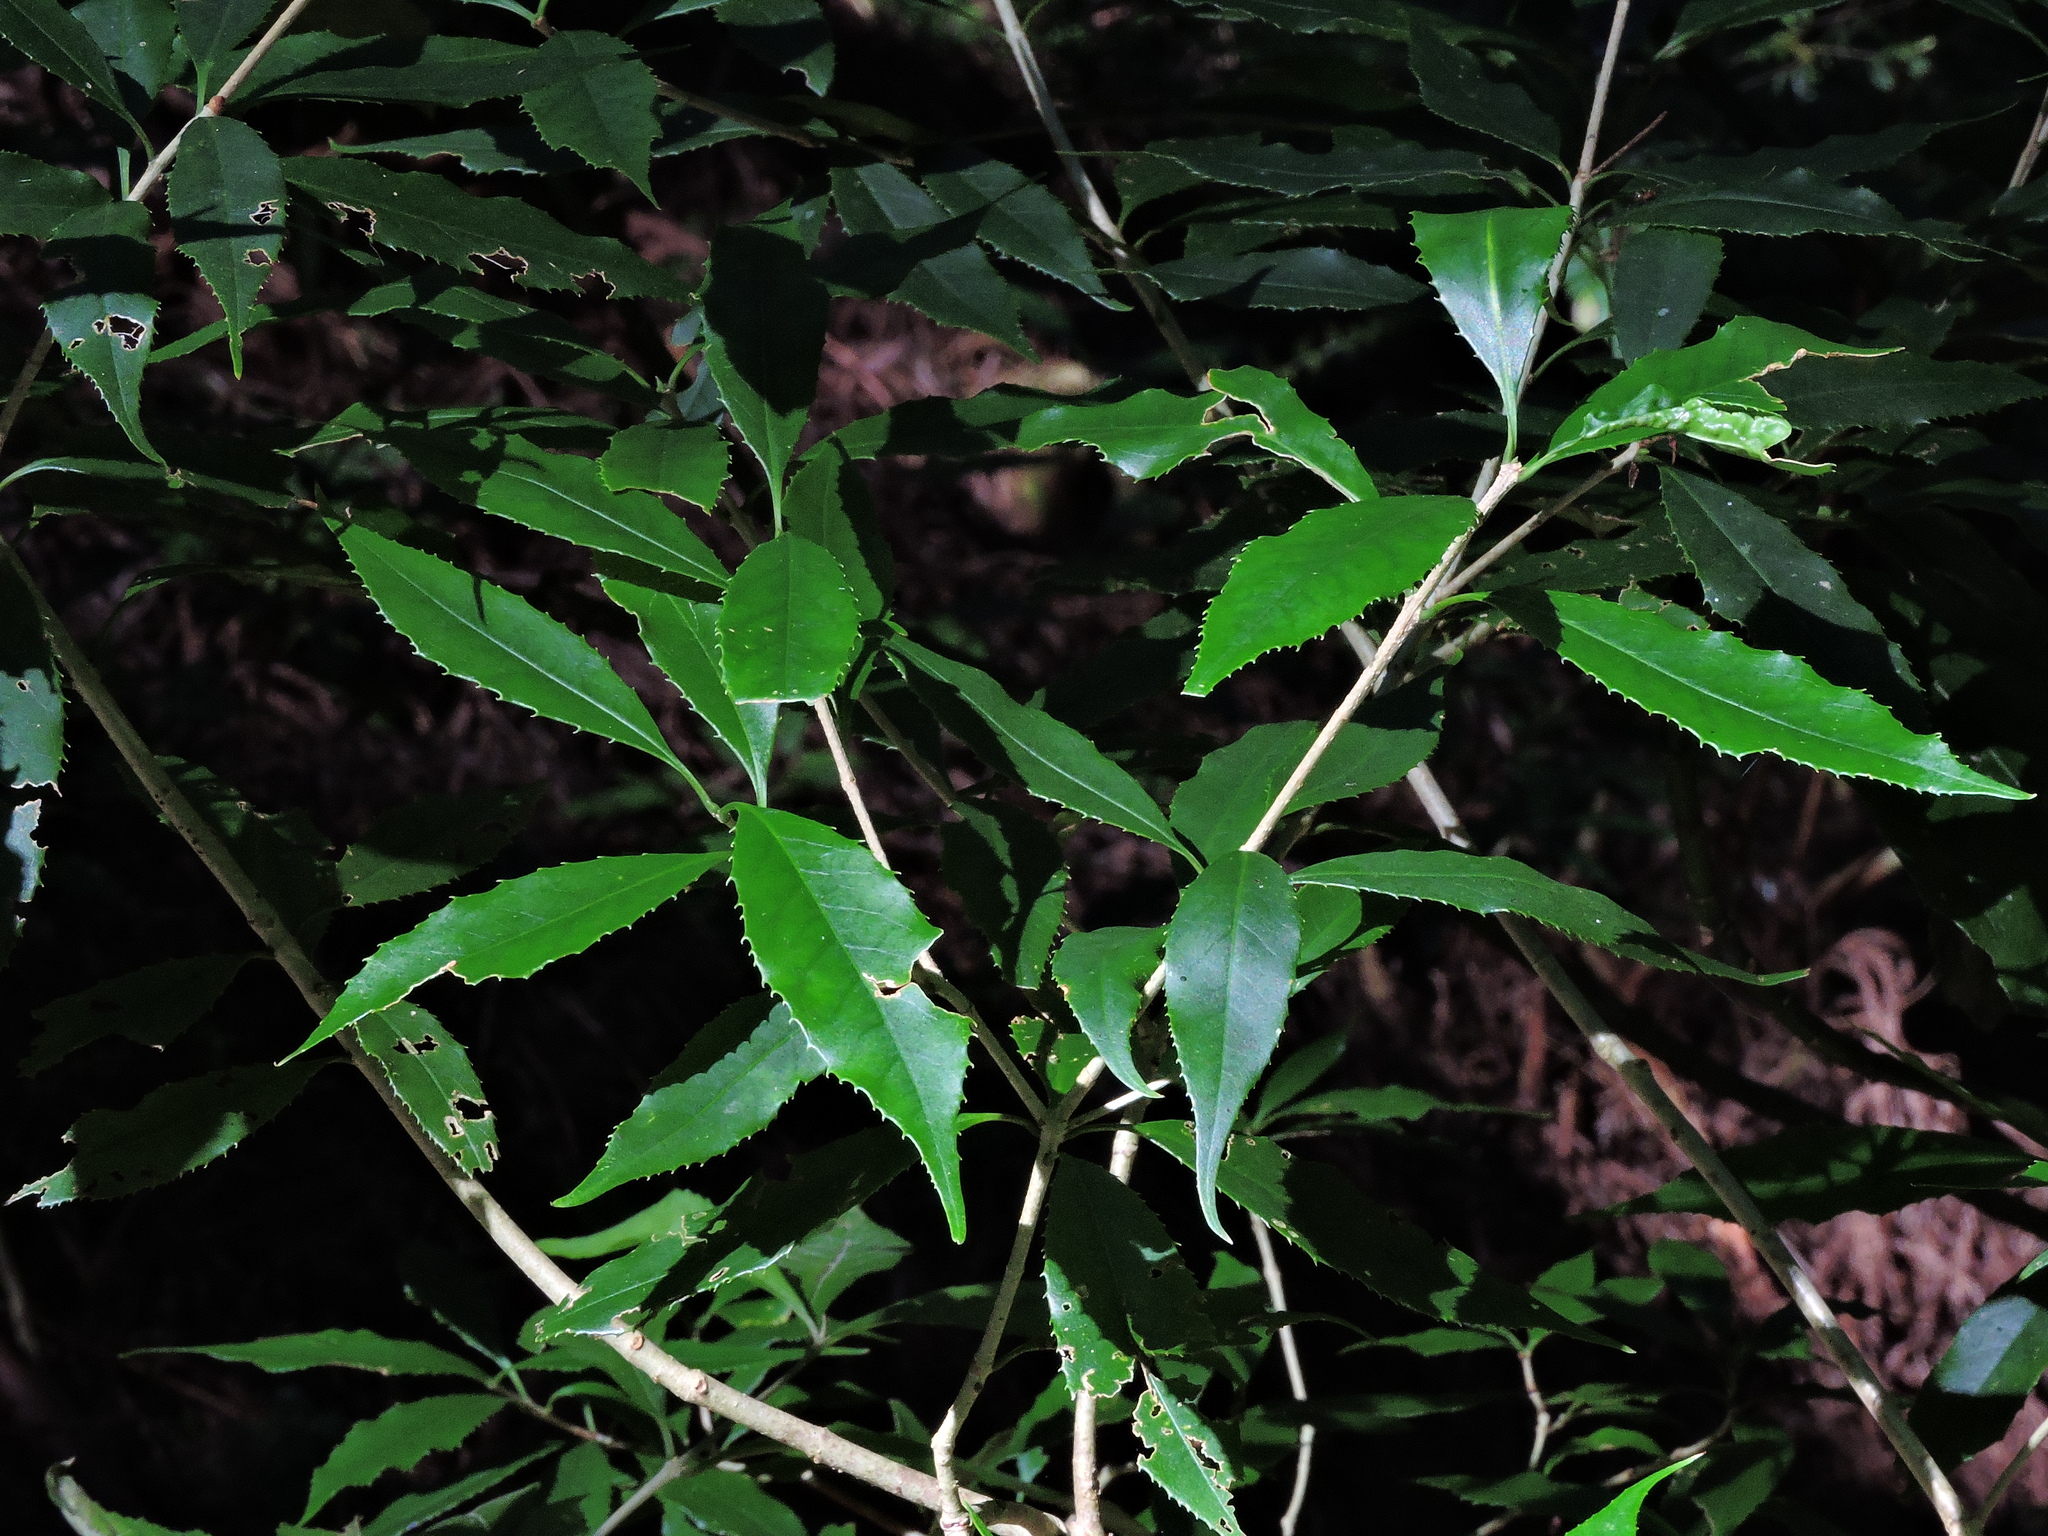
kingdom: Plantae
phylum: Tracheophyta
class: Magnoliopsida
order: Lamiales
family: Oleaceae
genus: Osmanthus
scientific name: Osmanthus lanceolatus
